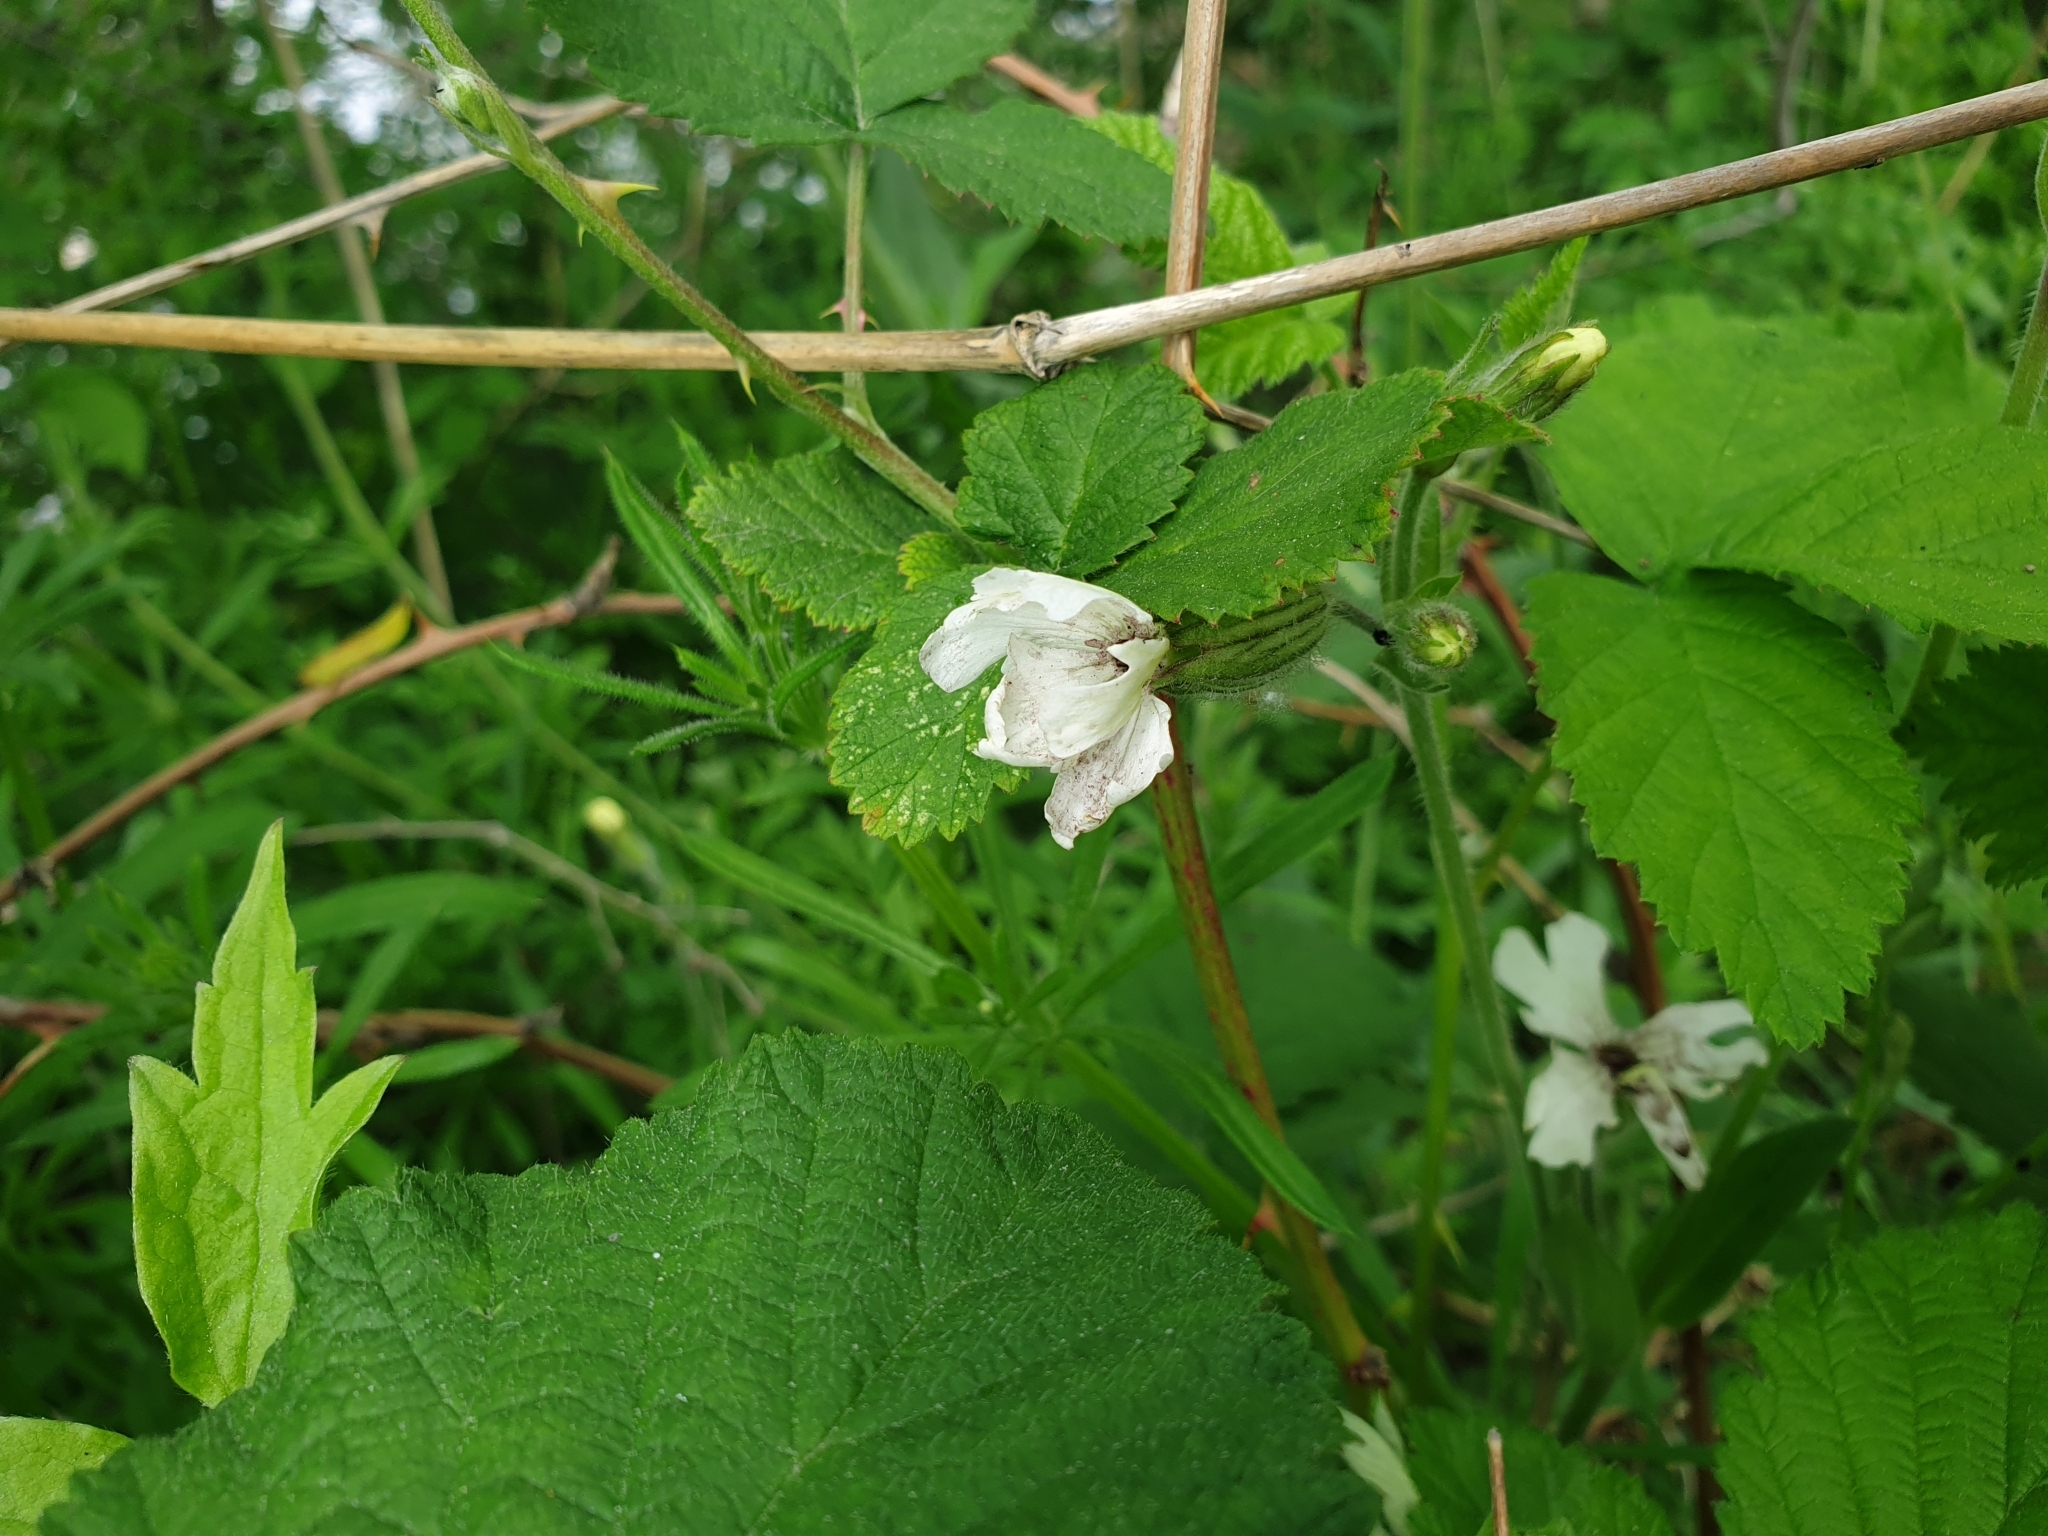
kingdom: Fungi
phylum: Basidiomycota
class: Microbotryomycetes
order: Microbotryales
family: Microbotryaceae
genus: Microbotryum
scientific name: Microbotryum lychnidis-dioicae
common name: Campion anther smut
